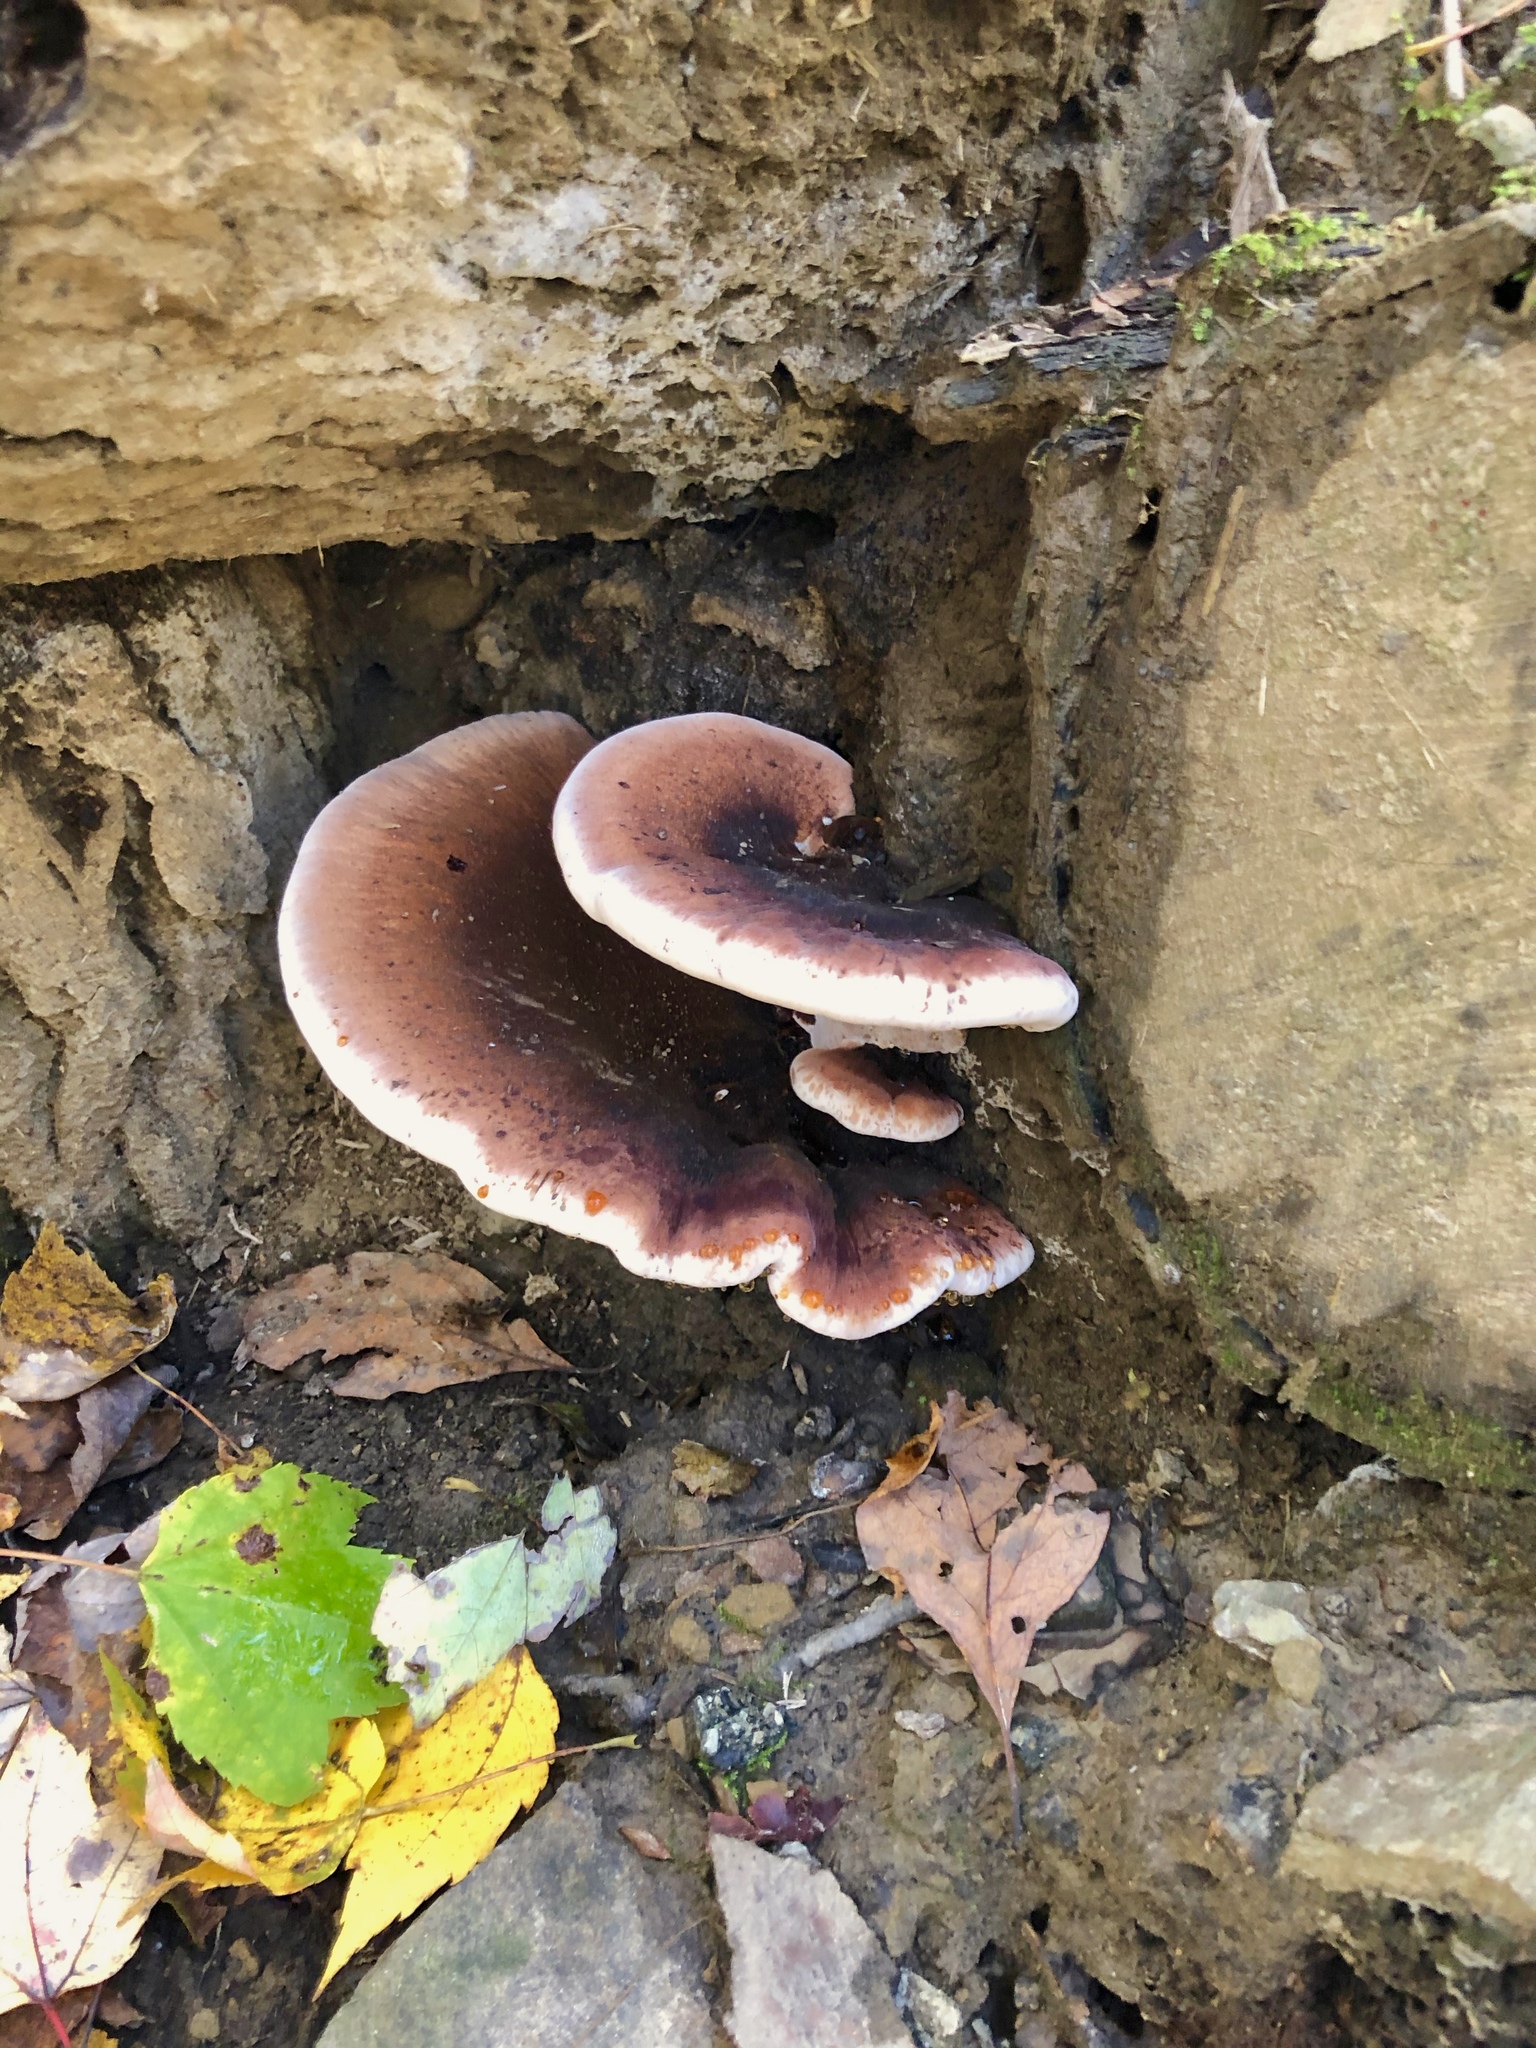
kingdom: Fungi
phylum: Basidiomycota
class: Agaricomycetes
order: Polyporales
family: Ischnodermataceae
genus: Ischnoderma
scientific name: Ischnoderma resinosum
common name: Resinous polypore
